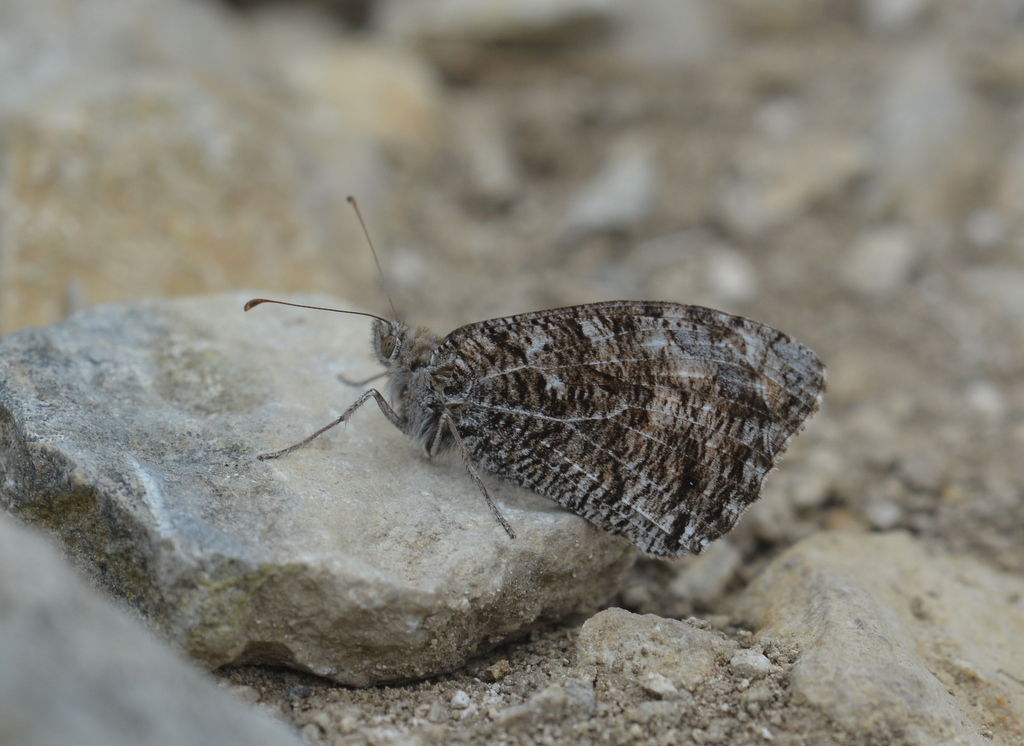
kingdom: Animalia
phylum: Arthropoda
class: Insecta
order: Lepidoptera
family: Nymphalidae
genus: Hipparchia
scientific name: Hipparchia semele
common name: Grayling
